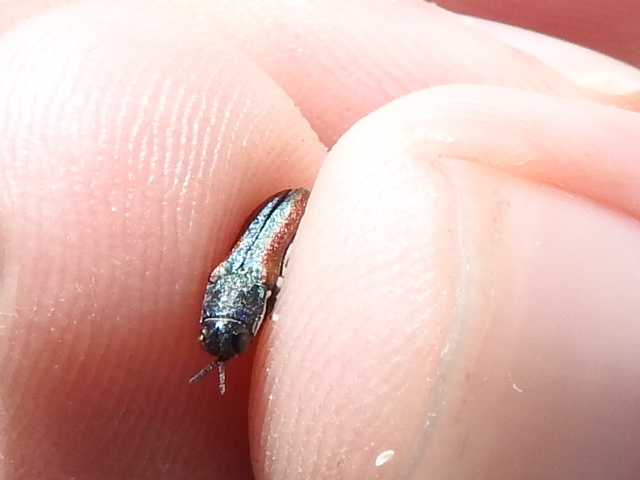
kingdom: Animalia
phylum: Arthropoda
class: Insecta
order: Coleoptera
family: Buprestidae
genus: Agrilus
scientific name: Agrilus pulchellus
